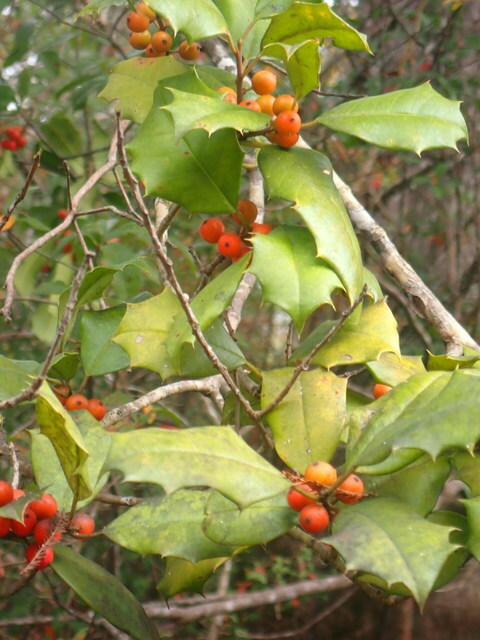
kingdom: Plantae
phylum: Tracheophyta
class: Magnoliopsida
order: Aquifoliales
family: Aquifoliaceae
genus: Ilex
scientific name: Ilex opaca
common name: American holly
